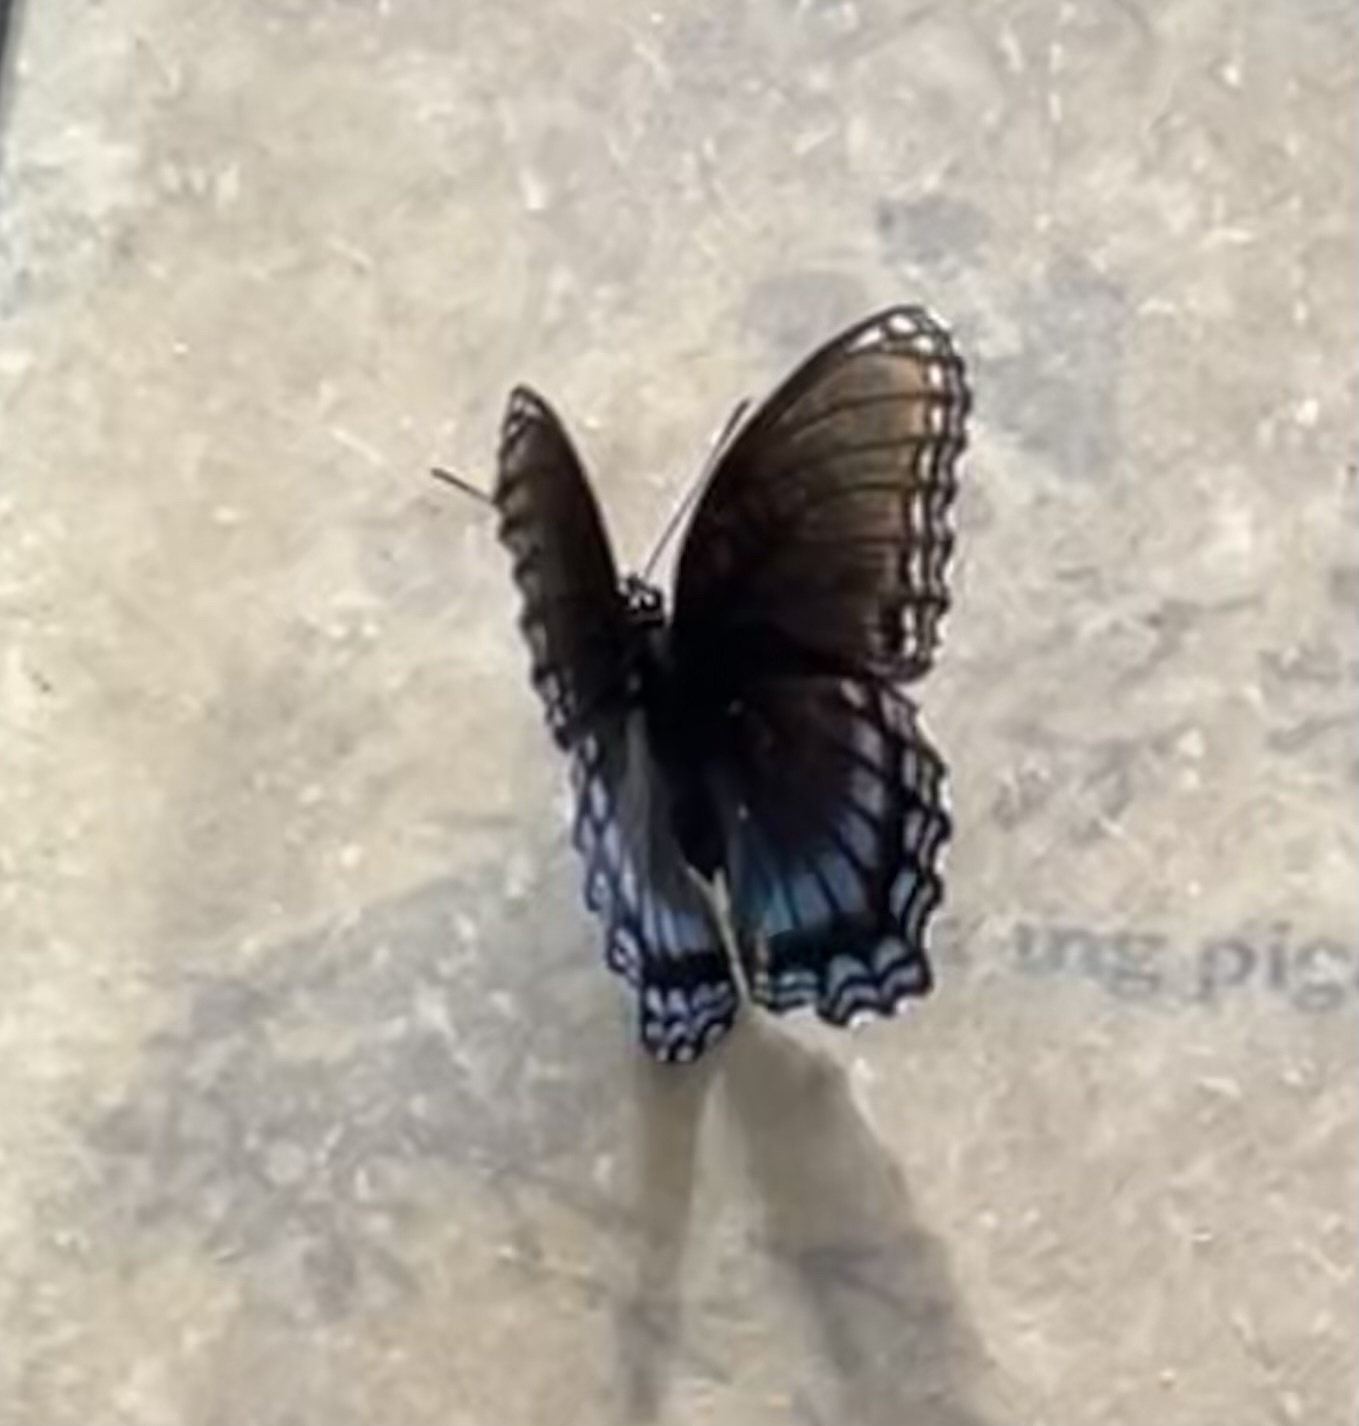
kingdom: Animalia
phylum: Arthropoda
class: Insecta
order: Lepidoptera
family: Nymphalidae
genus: Limenitis
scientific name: Limenitis astyanax
